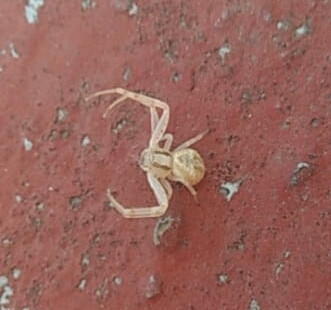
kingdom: Animalia
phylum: Arthropoda
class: Arachnida
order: Araneae
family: Thomisidae
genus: Misumena
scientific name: Misumena vatia
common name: Goldenrod crab spider
